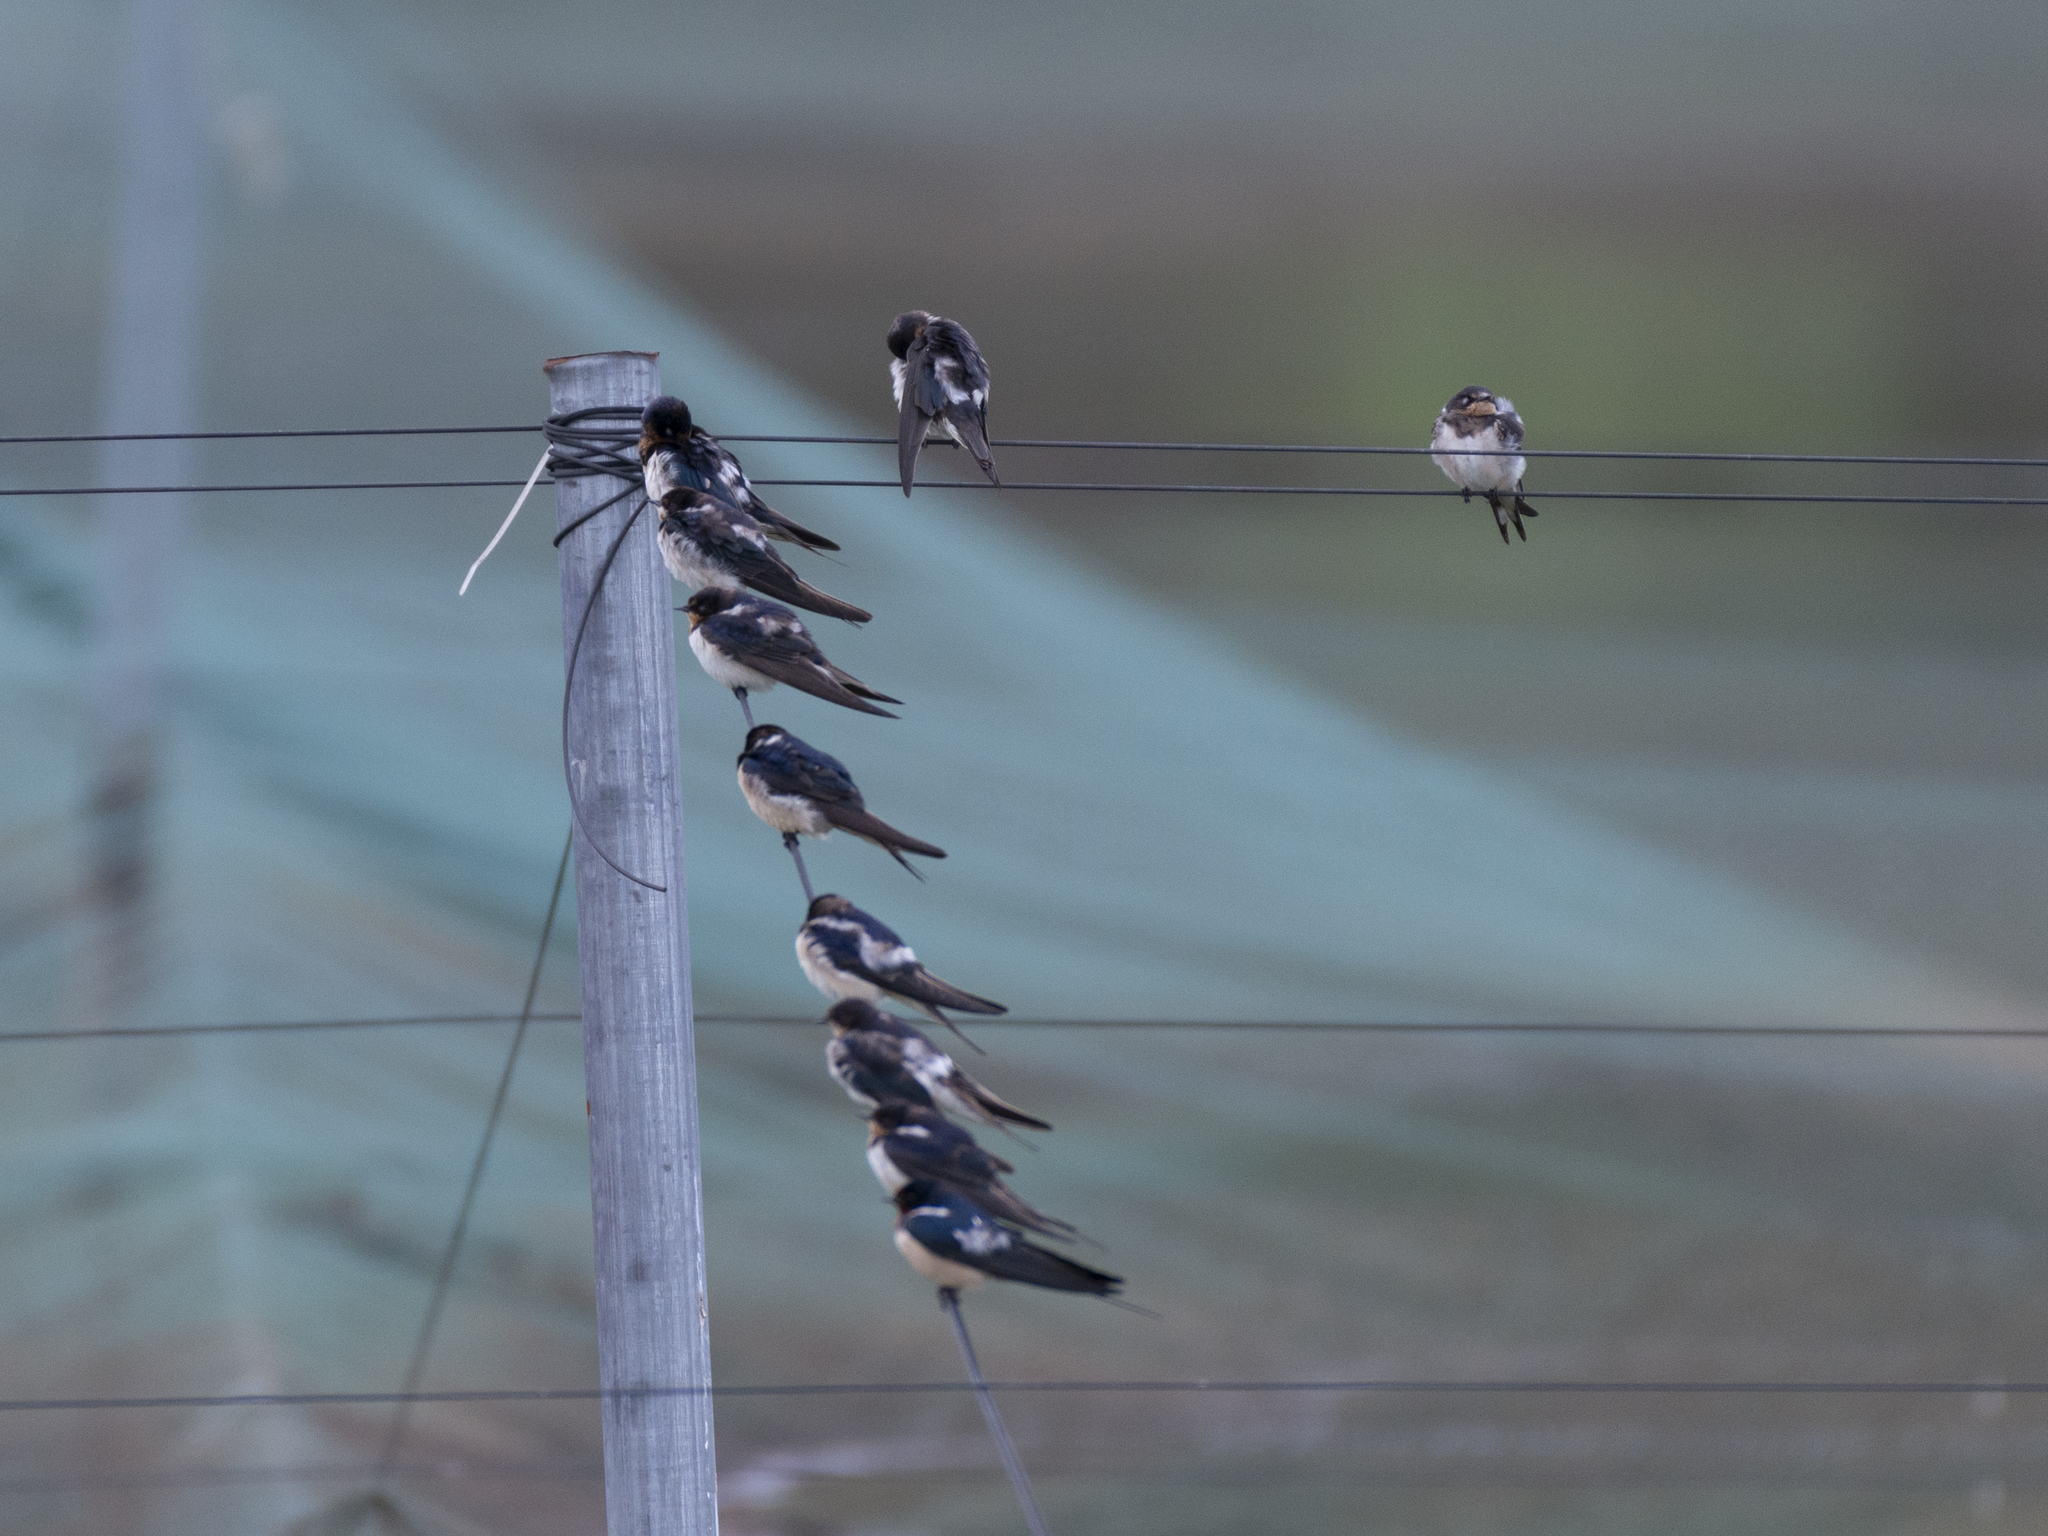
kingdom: Animalia
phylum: Chordata
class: Aves
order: Passeriformes
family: Hirundinidae
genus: Hirundo
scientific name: Hirundo rustica
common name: Barn swallow
